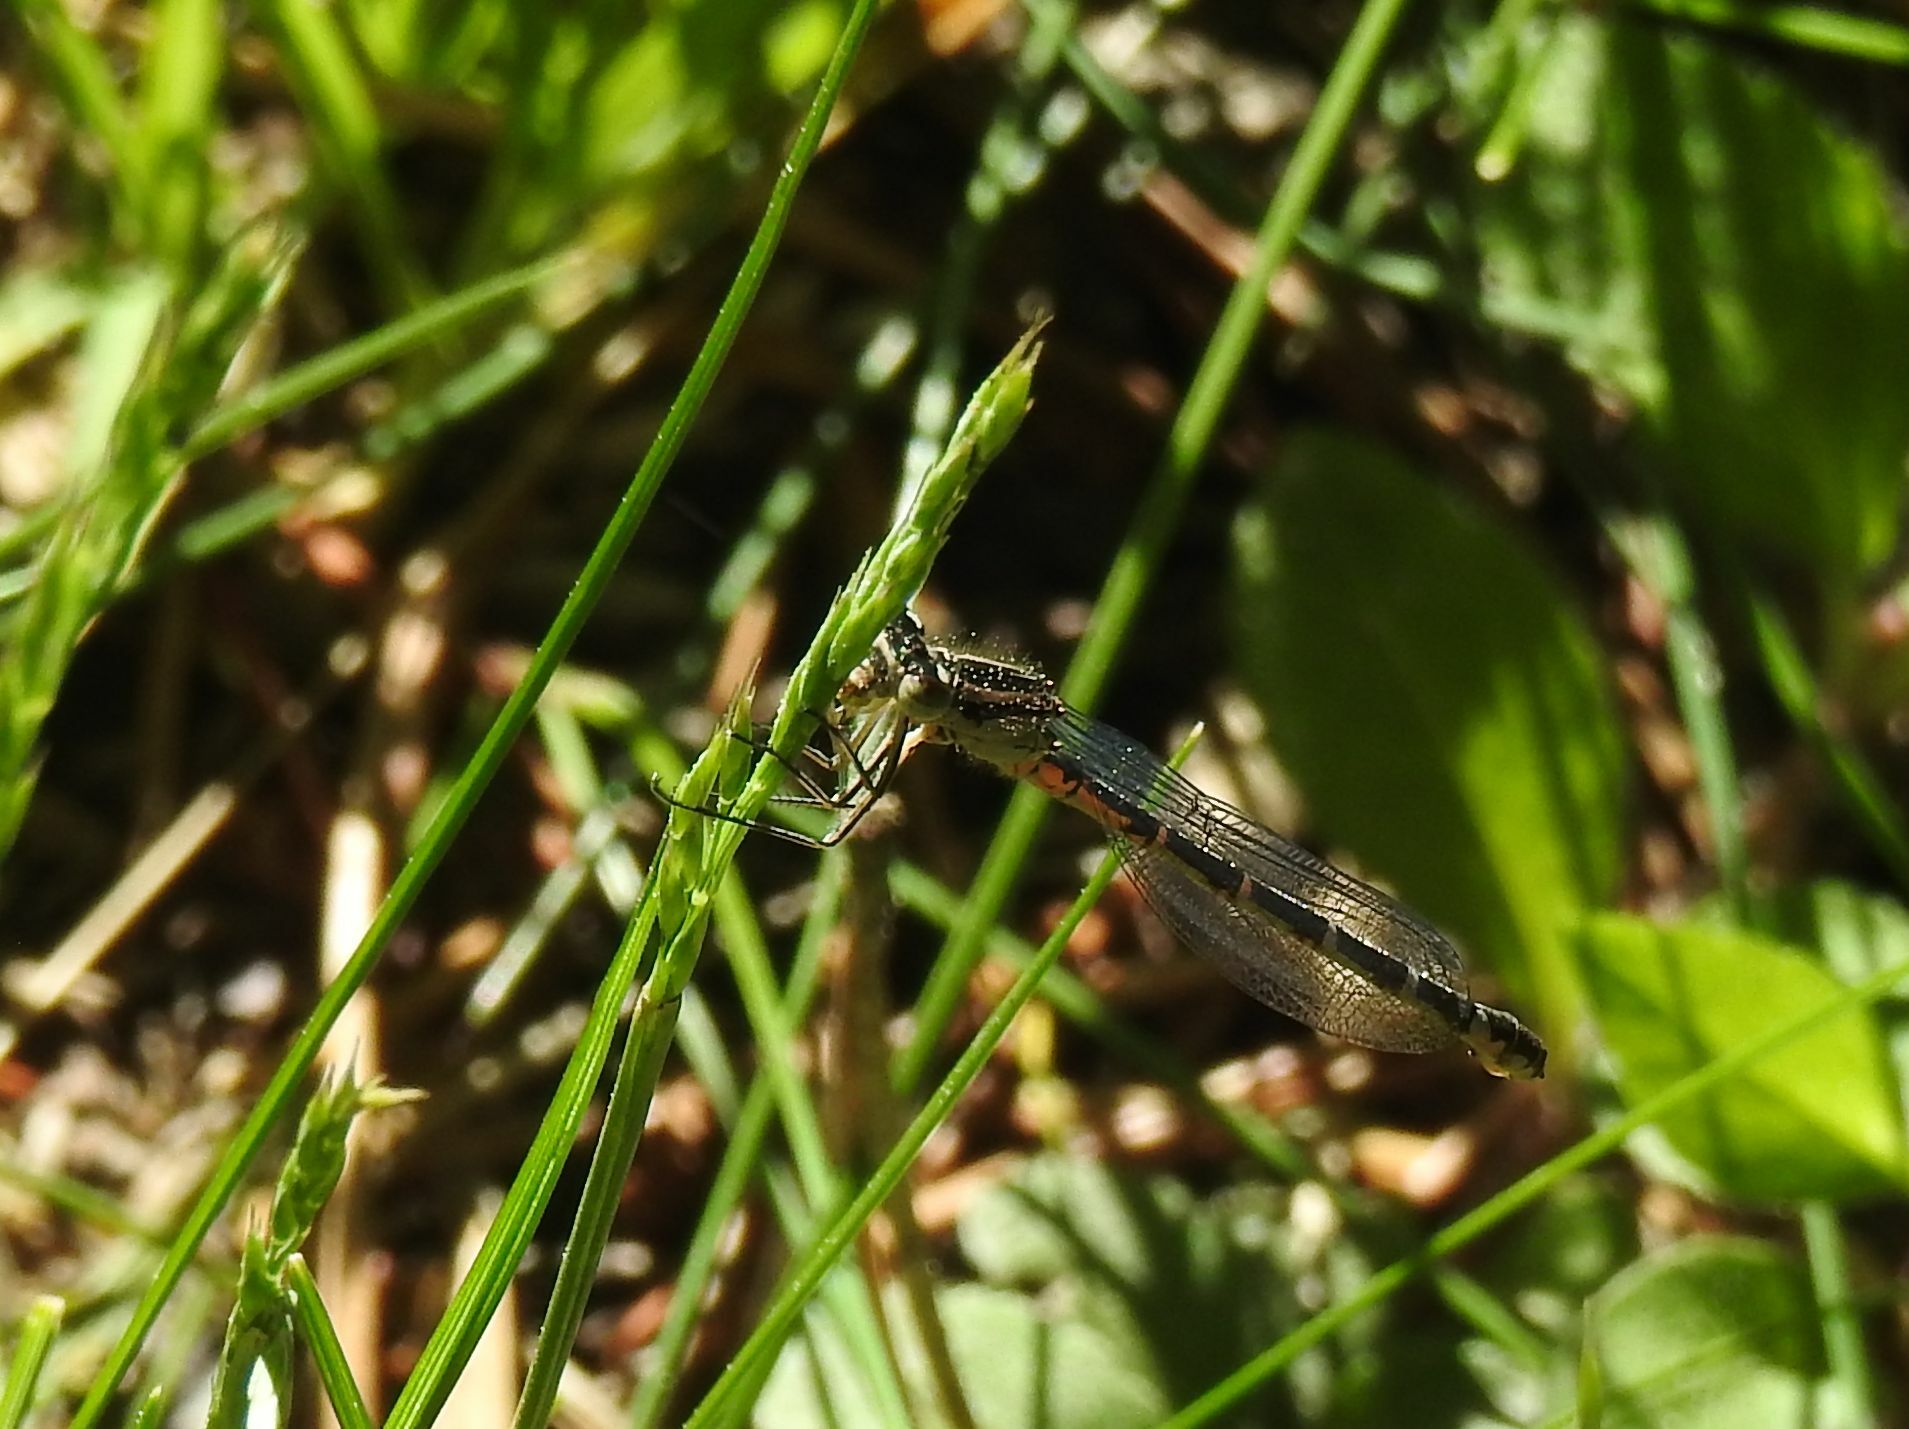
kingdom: Animalia
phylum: Arthropoda
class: Insecta
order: Odonata
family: Coenagrionidae
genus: Coenagrion
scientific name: Coenagrion hastulatum
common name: Spearhead bluet
